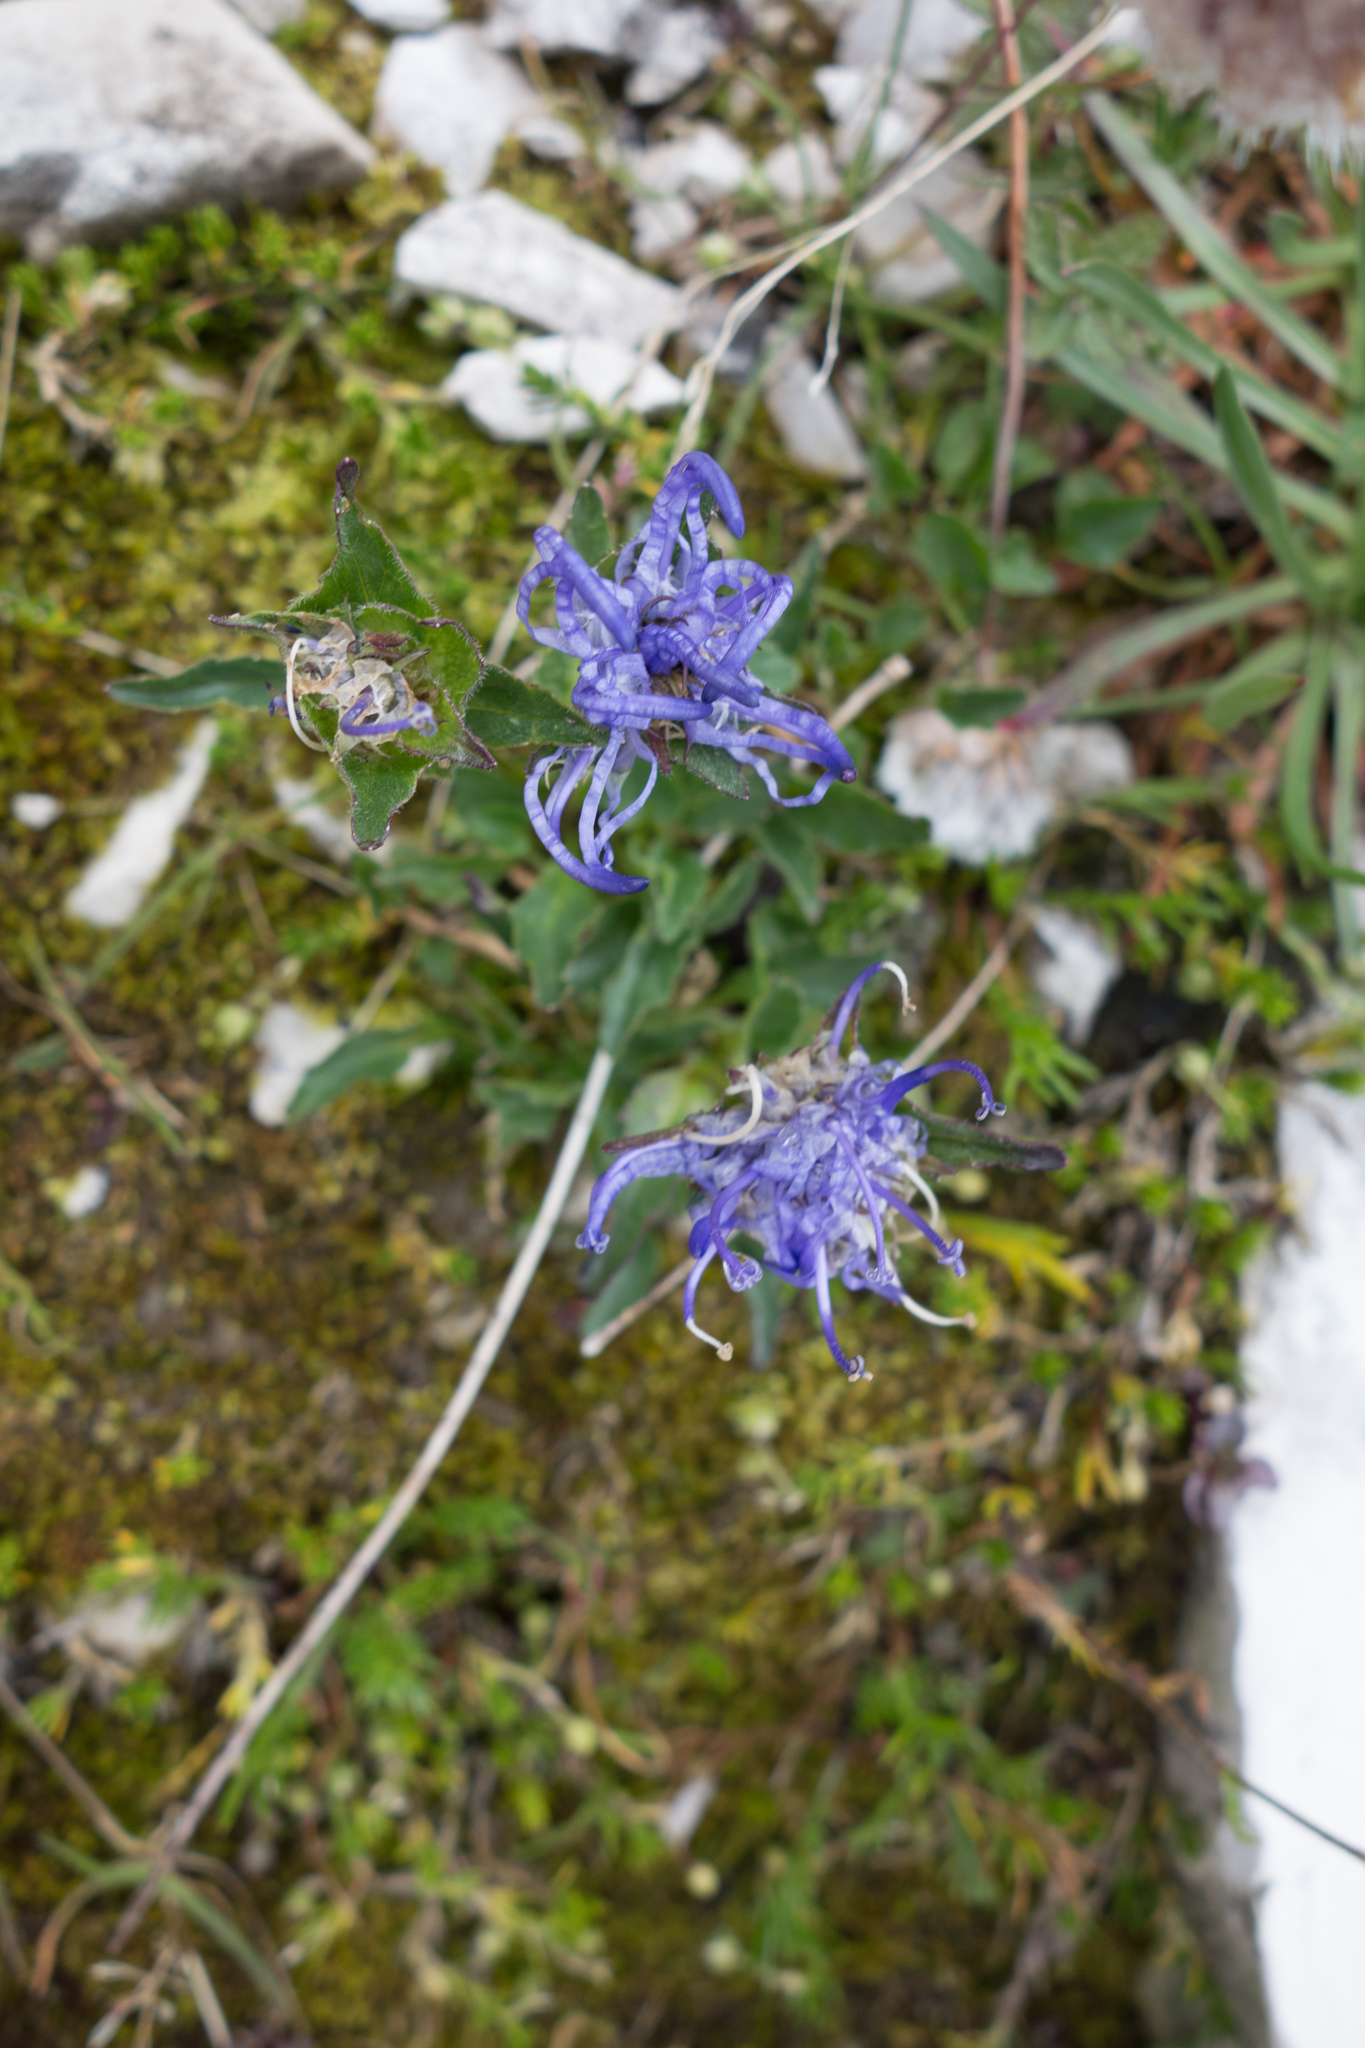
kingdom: Plantae
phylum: Tracheophyta
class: Magnoliopsida
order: Asterales
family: Campanulaceae
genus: Phyteuma
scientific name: Phyteuma sieberi
